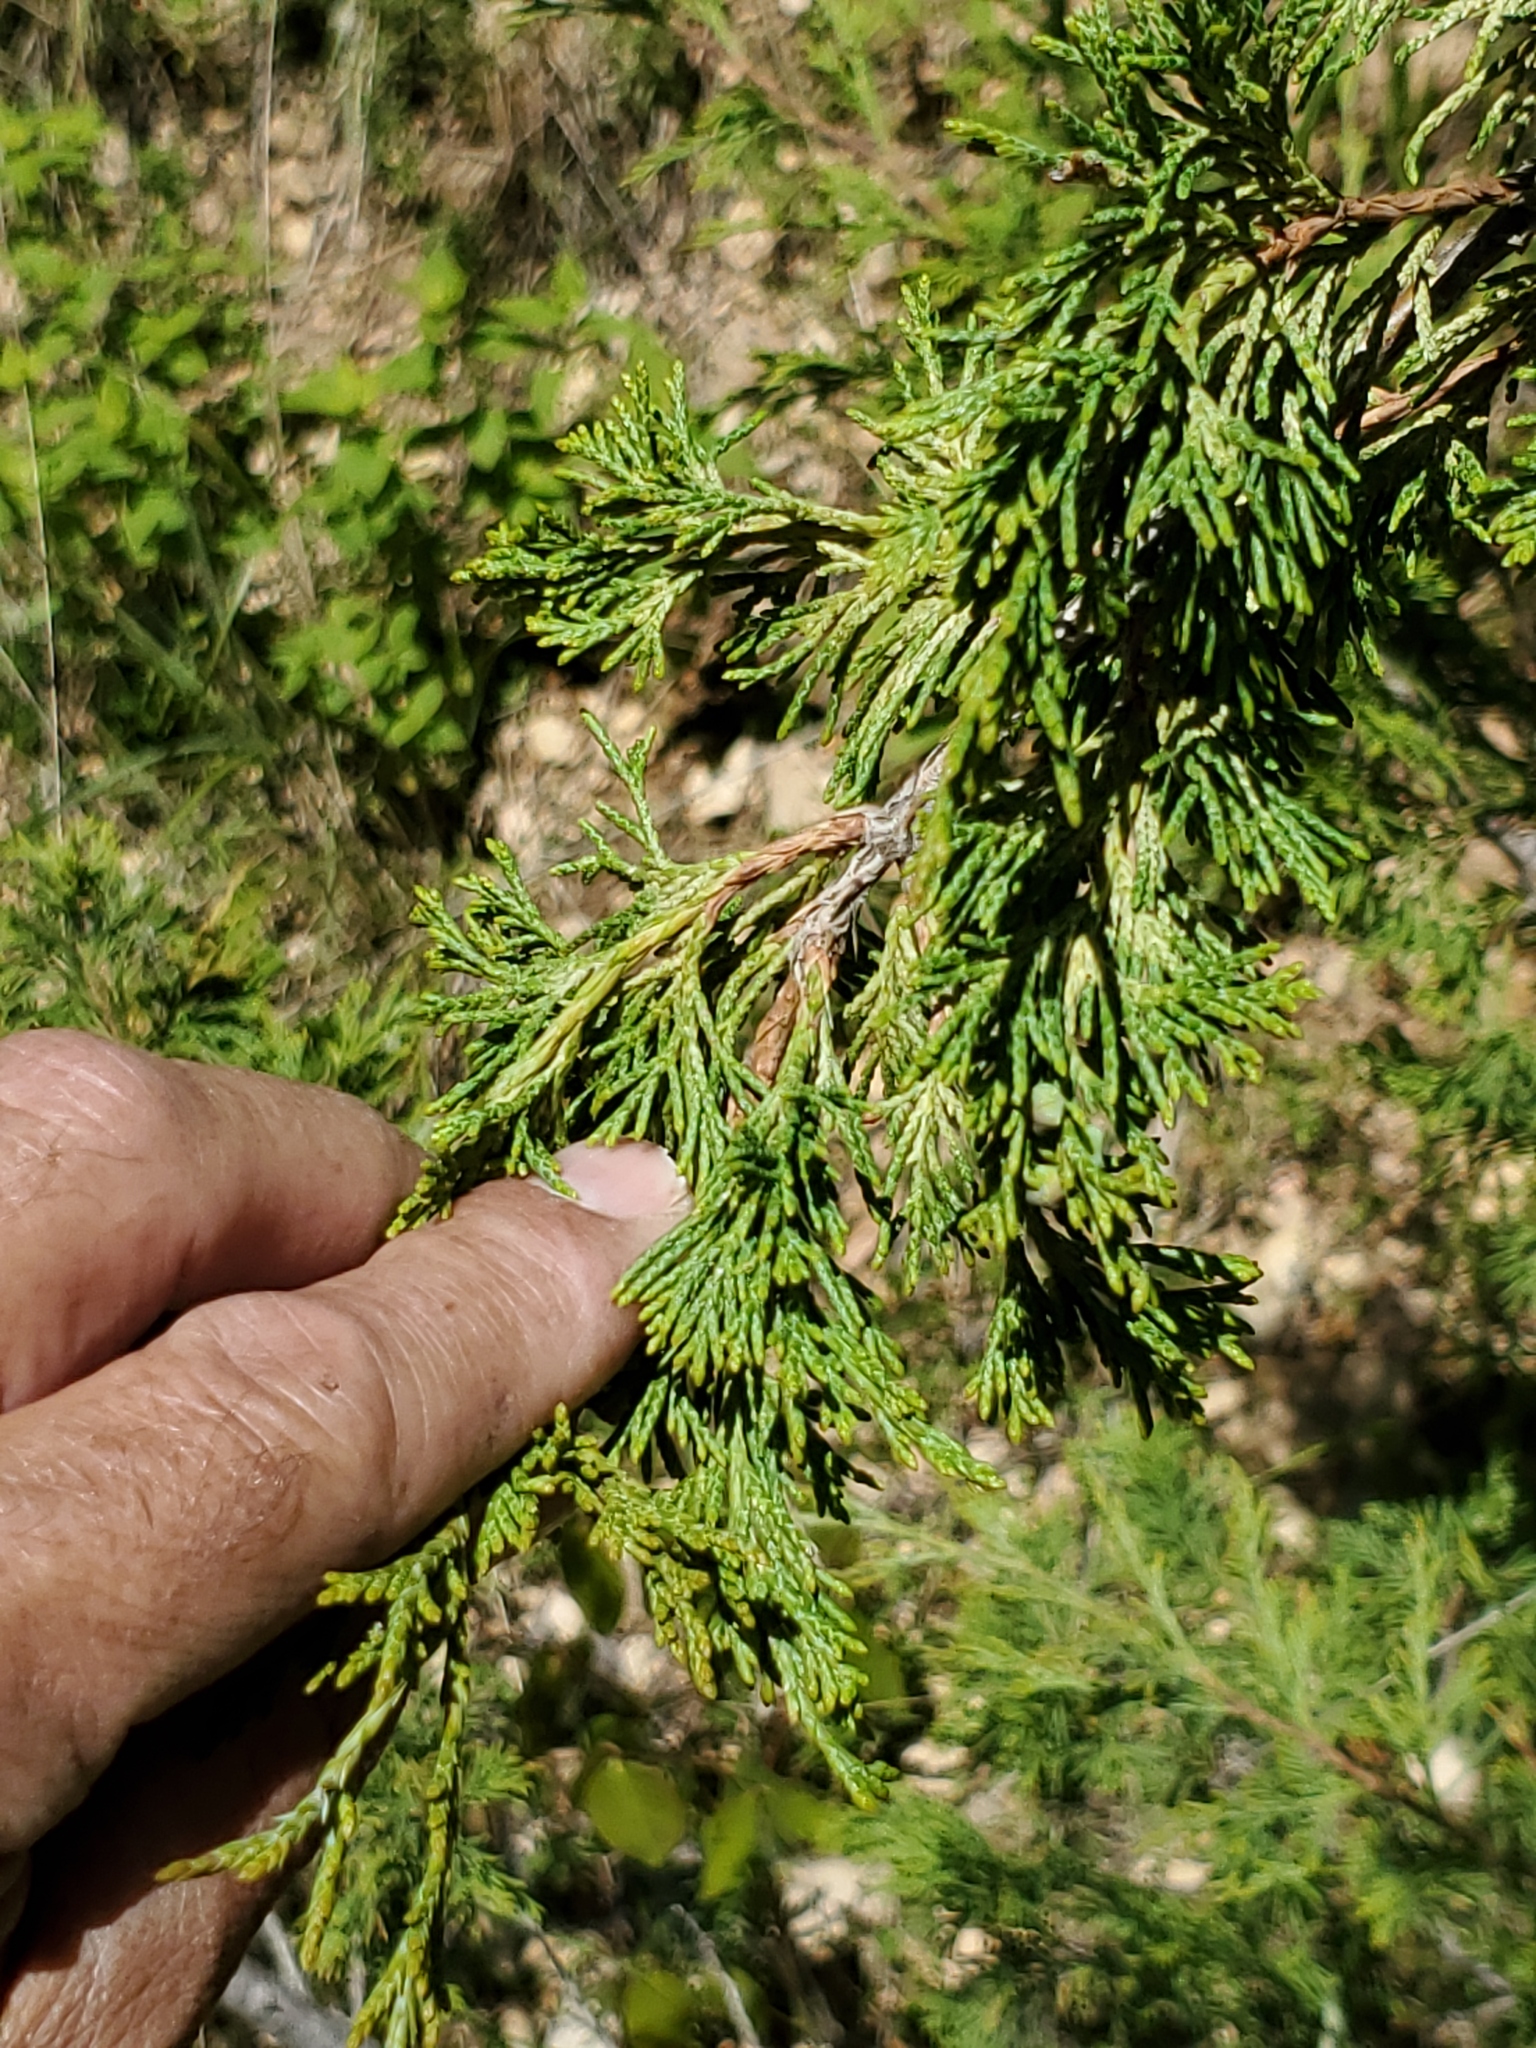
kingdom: Plantae
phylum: Tracheophyta
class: Pinopsida
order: Pinales
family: Cupressaceae
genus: Juniperus
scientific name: Juniperus scopulorum
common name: Rocky mountain juniper
